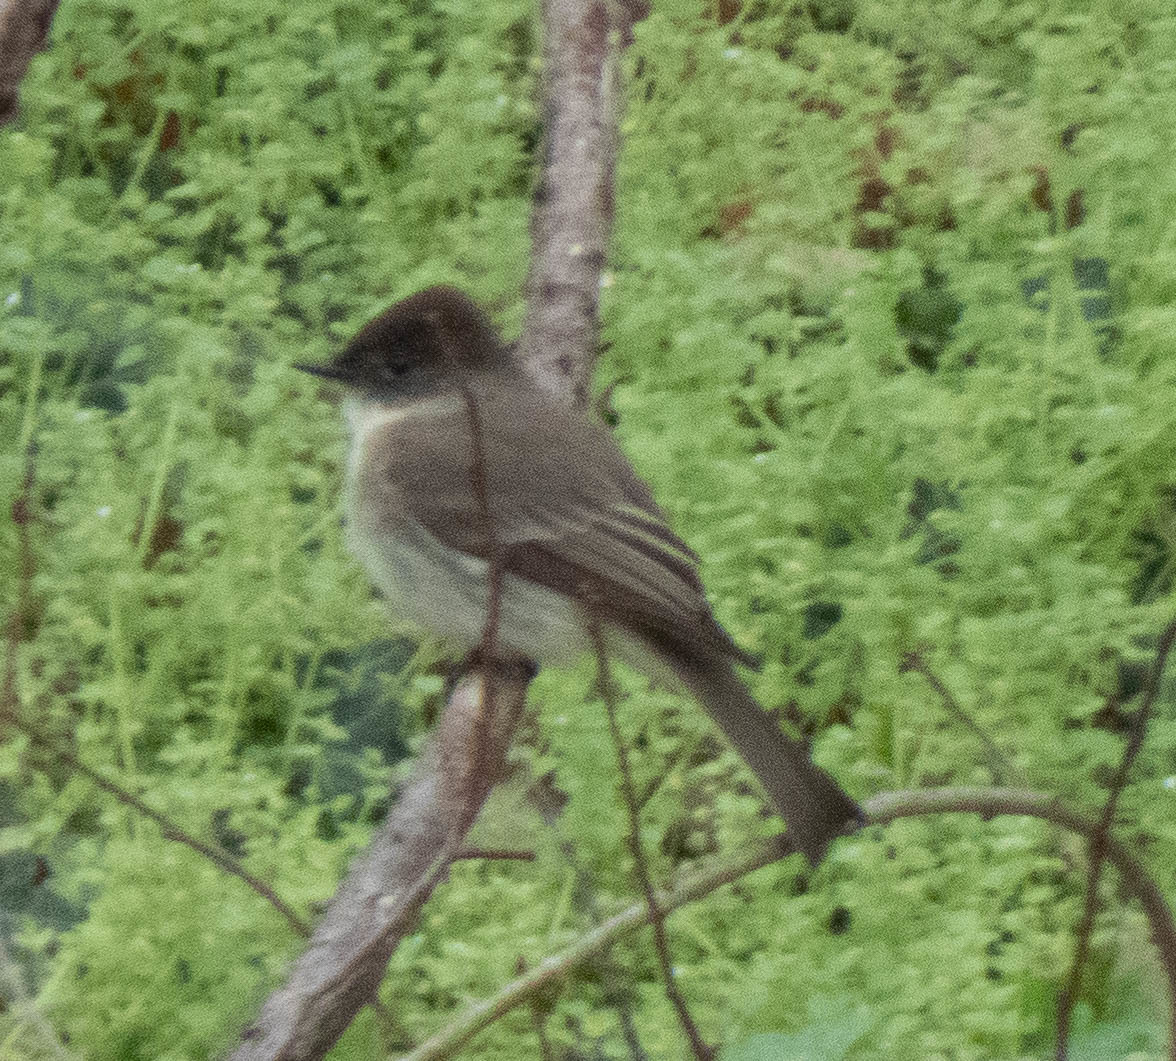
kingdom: Animalia
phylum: Chordata
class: Aves
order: Passeriformes
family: Tyrannidae
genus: Sayornis
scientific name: Sayornis phoebe
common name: Eastern phoebe
